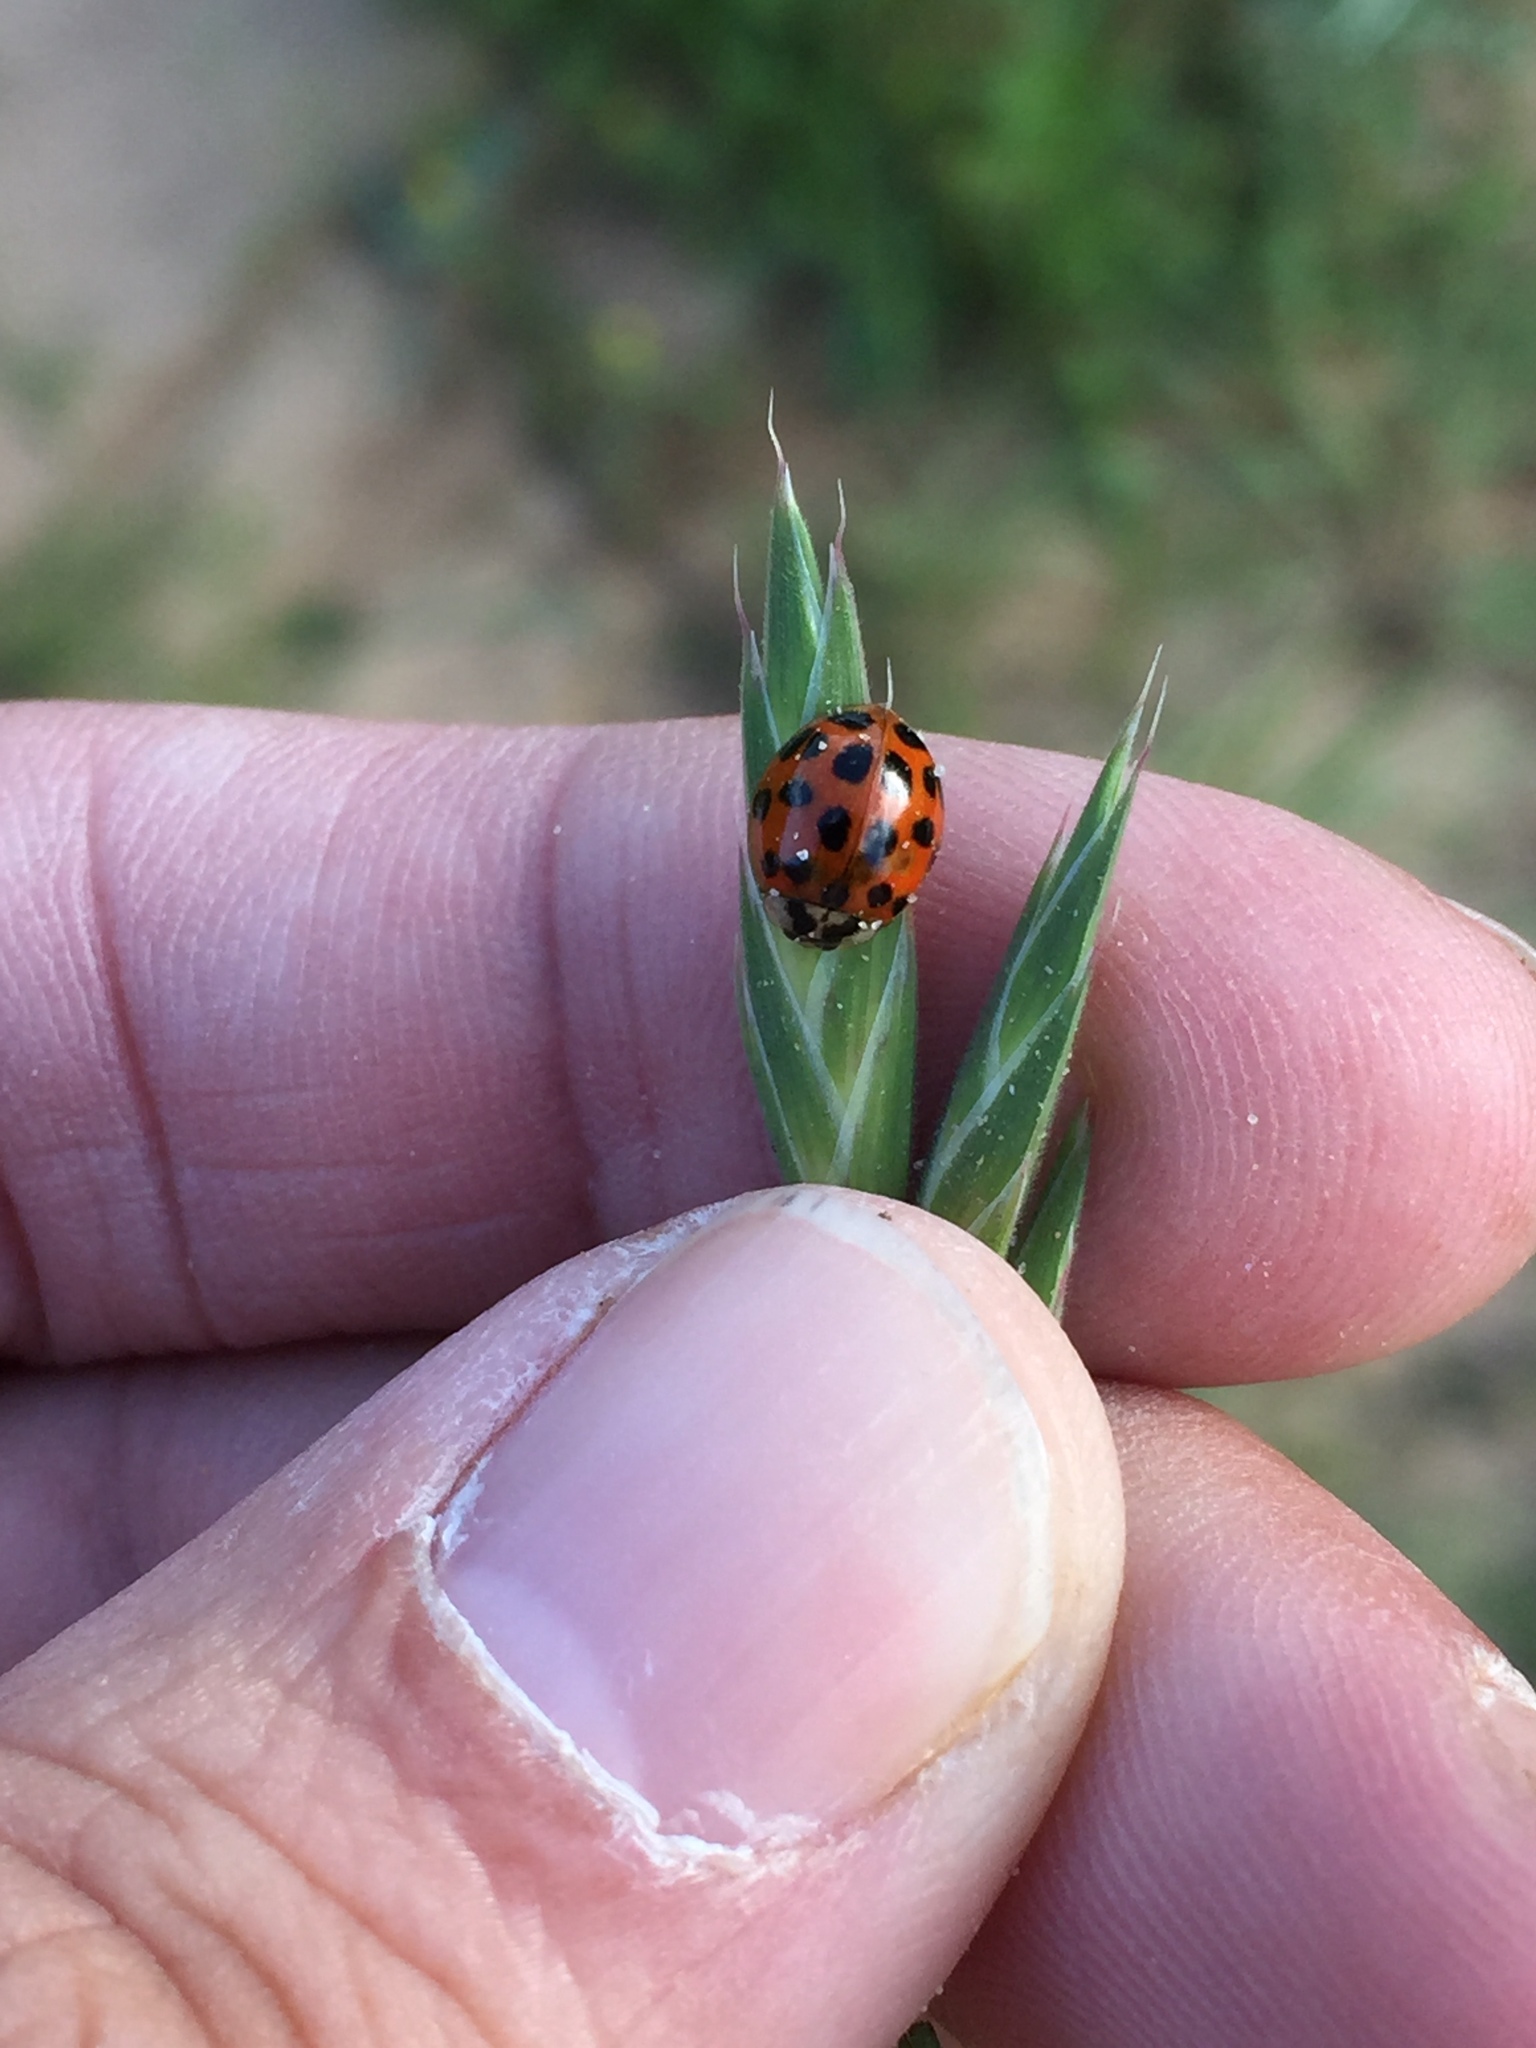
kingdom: Animalia
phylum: Arthropoda
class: Insecta
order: Coleoptera
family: Coccinellidae
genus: Harmonia
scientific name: Harmonia axyridis
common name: Harlequin ladybird
